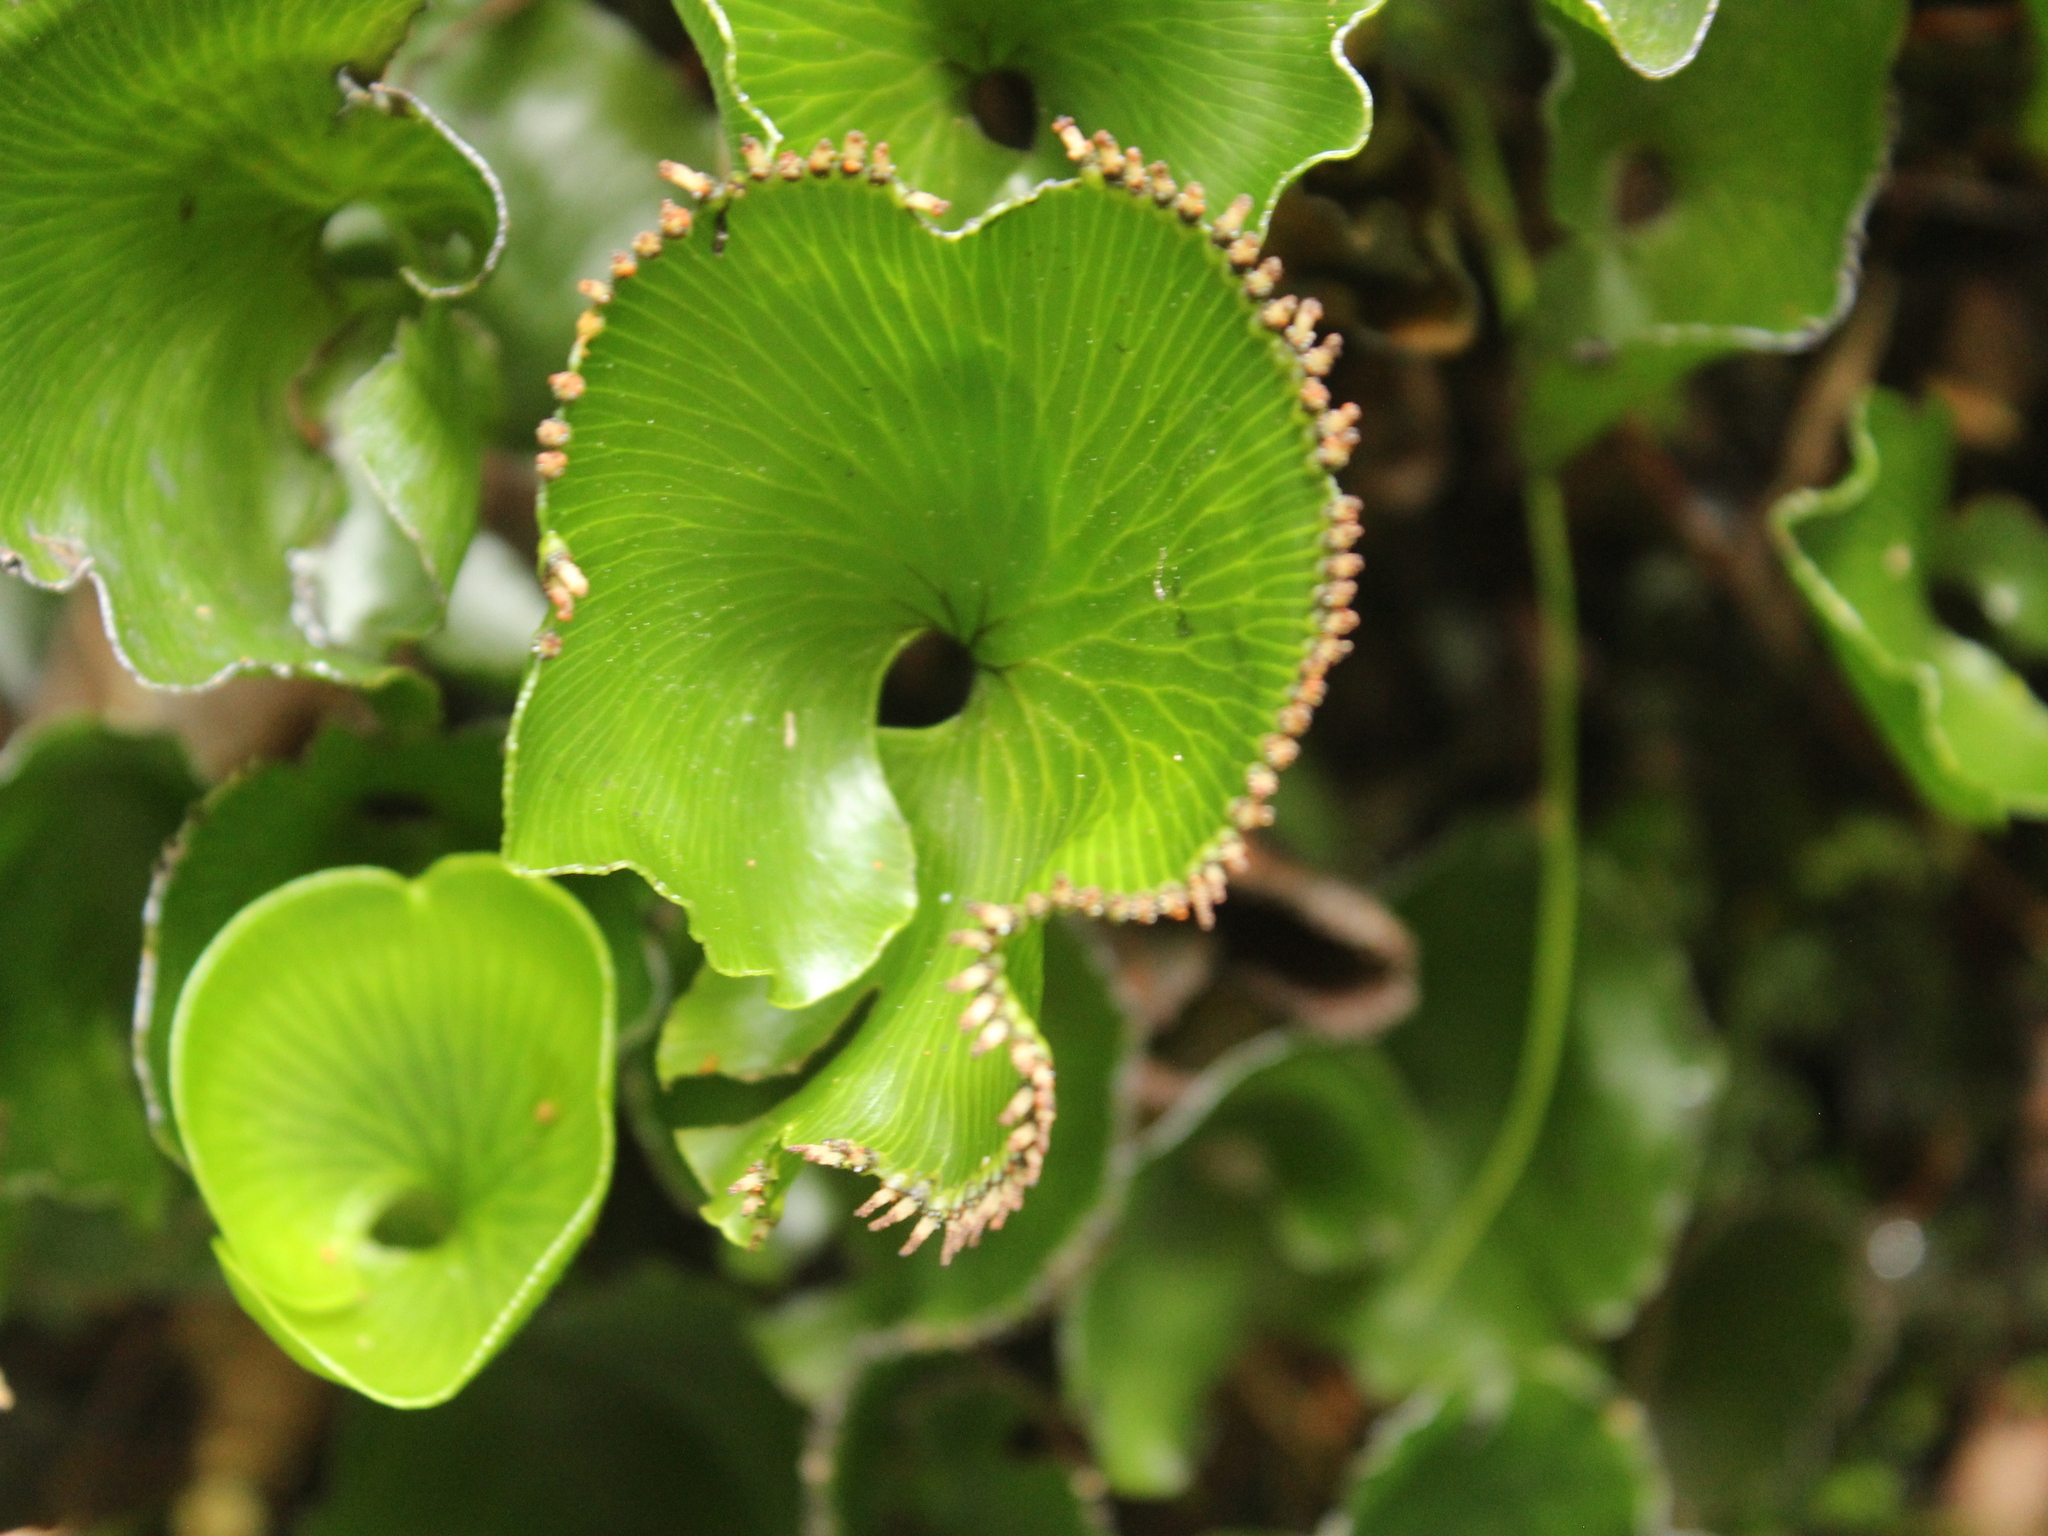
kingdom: Plantae
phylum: Tracheophyta
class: Polypodiopsida
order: Hymenophyllales
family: Hymenophyllaceae
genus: Hymenophyllum
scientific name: Hymenophyllum nephrophyllum
